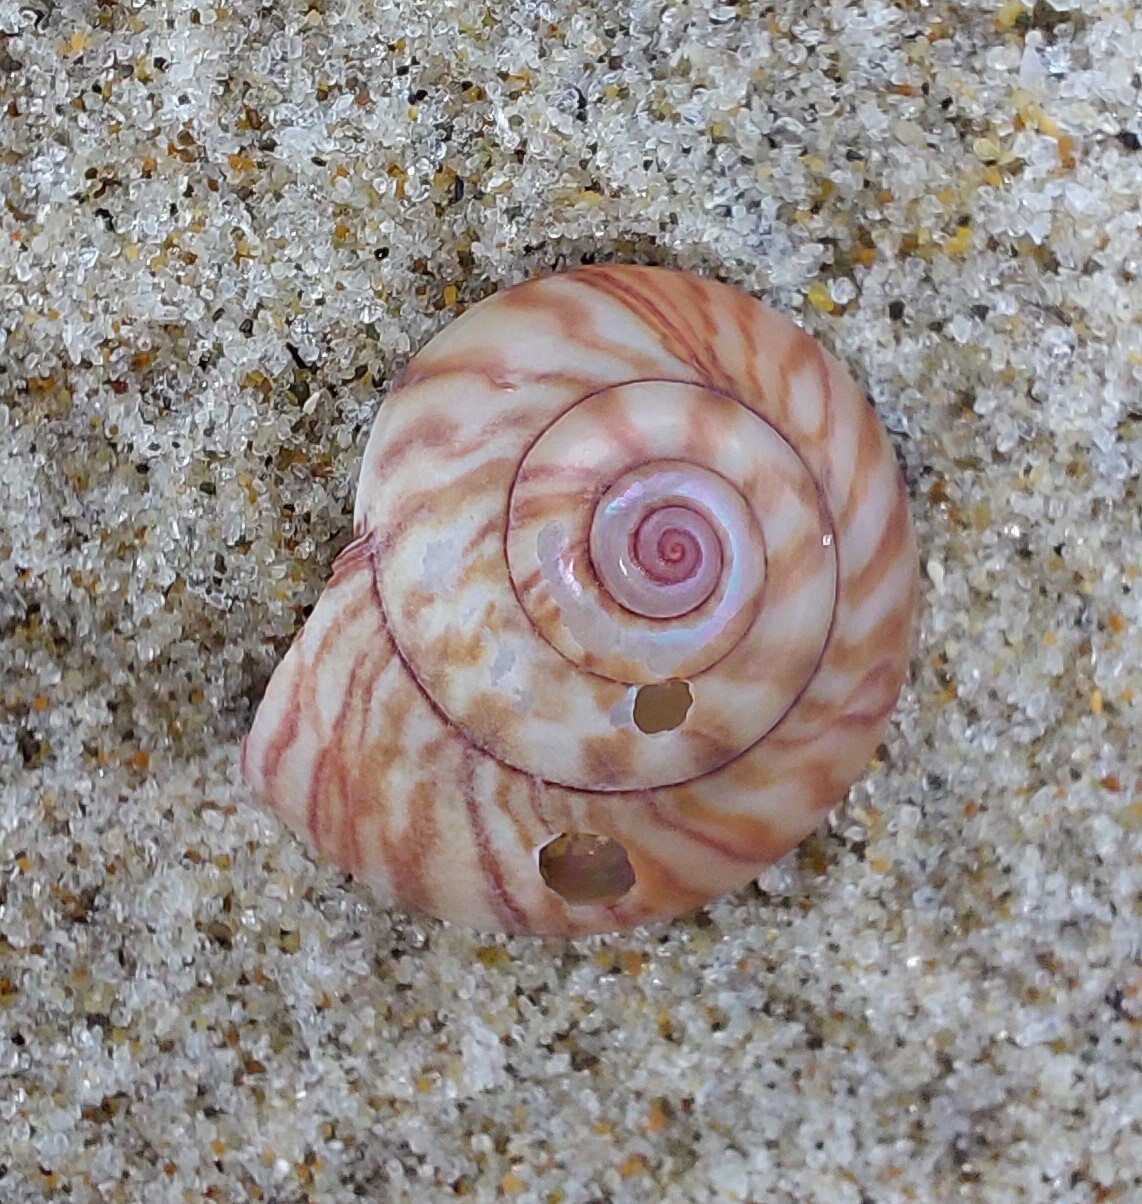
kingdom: Animalia
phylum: Mollusca
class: Gastropoda
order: Trochida
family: Trochidae
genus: Zethalia
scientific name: Zethalia zelandica
